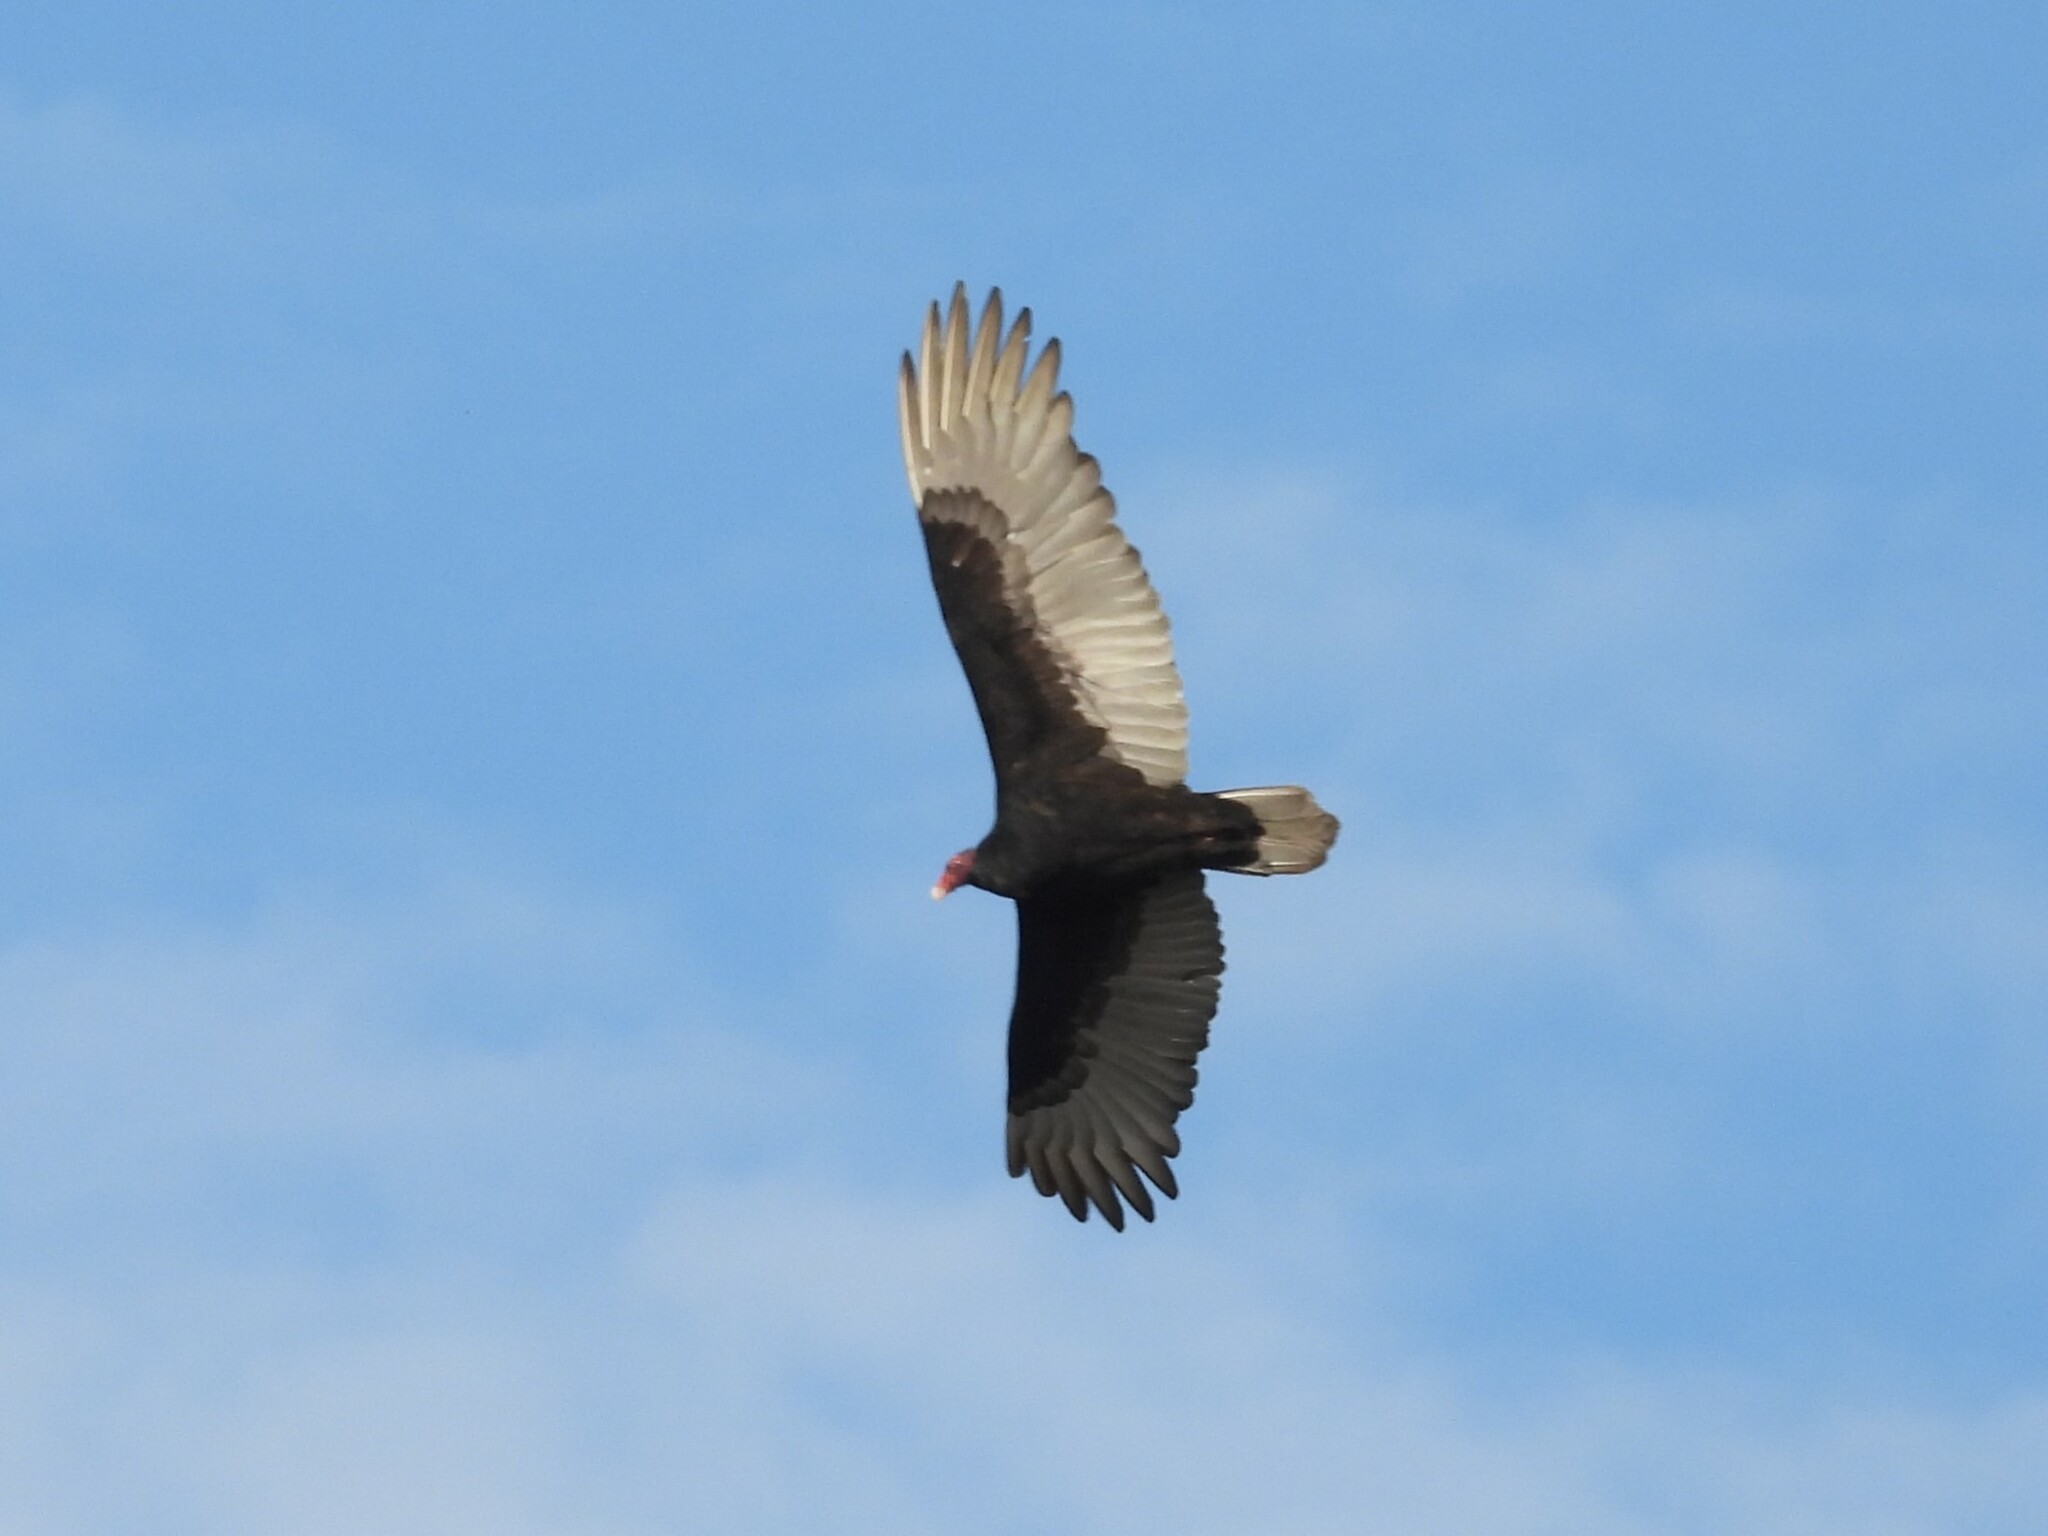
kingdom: Animalia
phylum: Chordata
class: Aves
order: Accipitriformes
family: Cathartidae
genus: Cathartes
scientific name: Cathartes aura
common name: Turkey vulture
